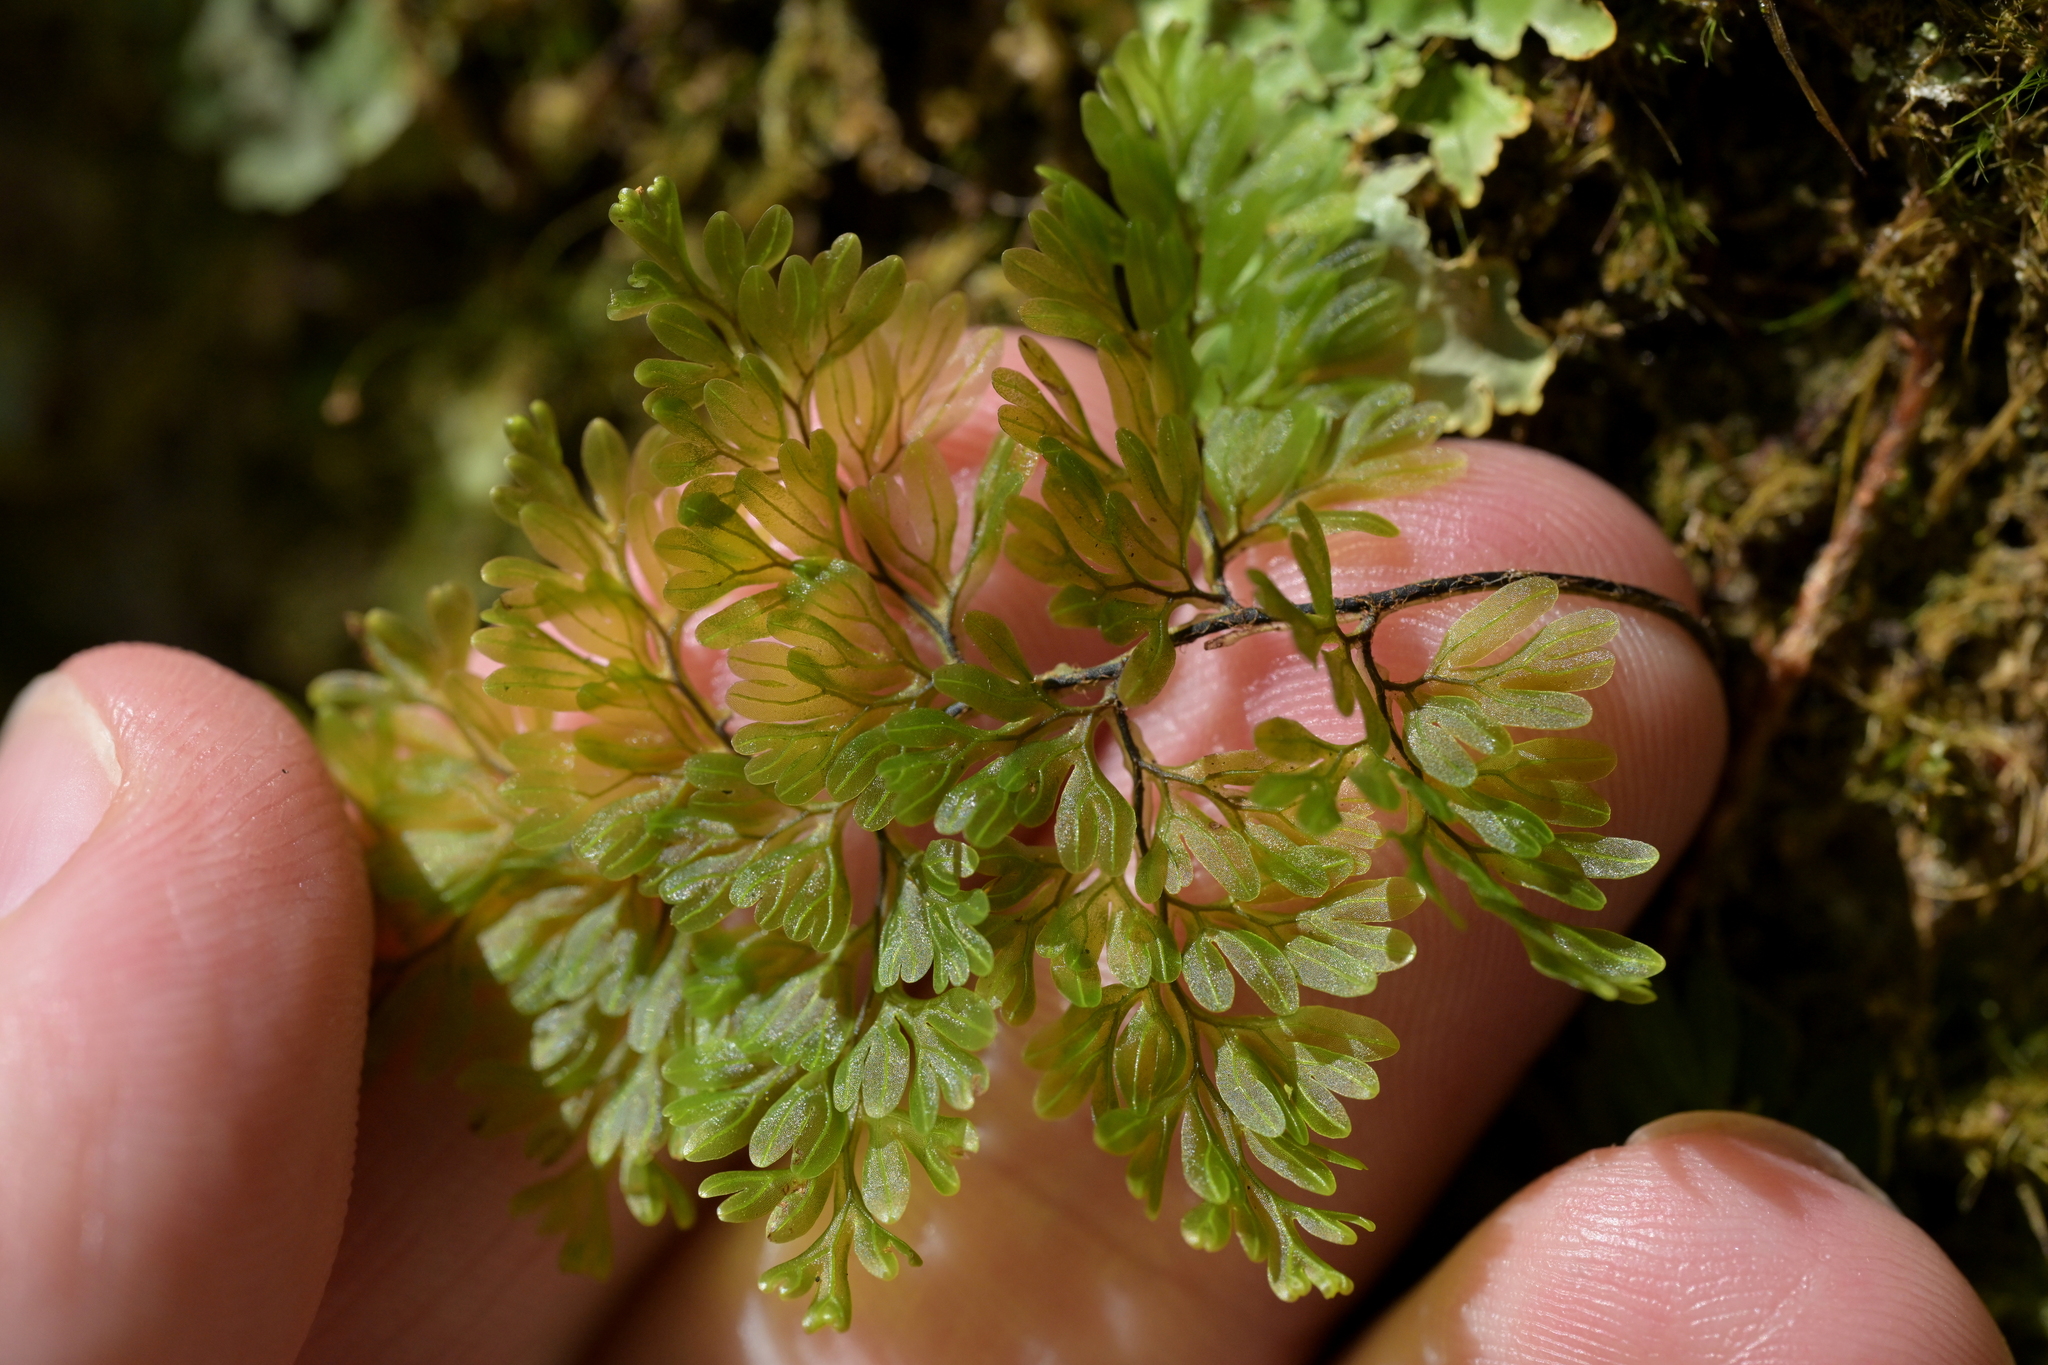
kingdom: Plantae
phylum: Tracheophyta
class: Polypodiopsida
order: Hymenophyllales
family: Hymenophyllaceae
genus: Hymenophyllum
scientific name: Hymenophyllum villosum
